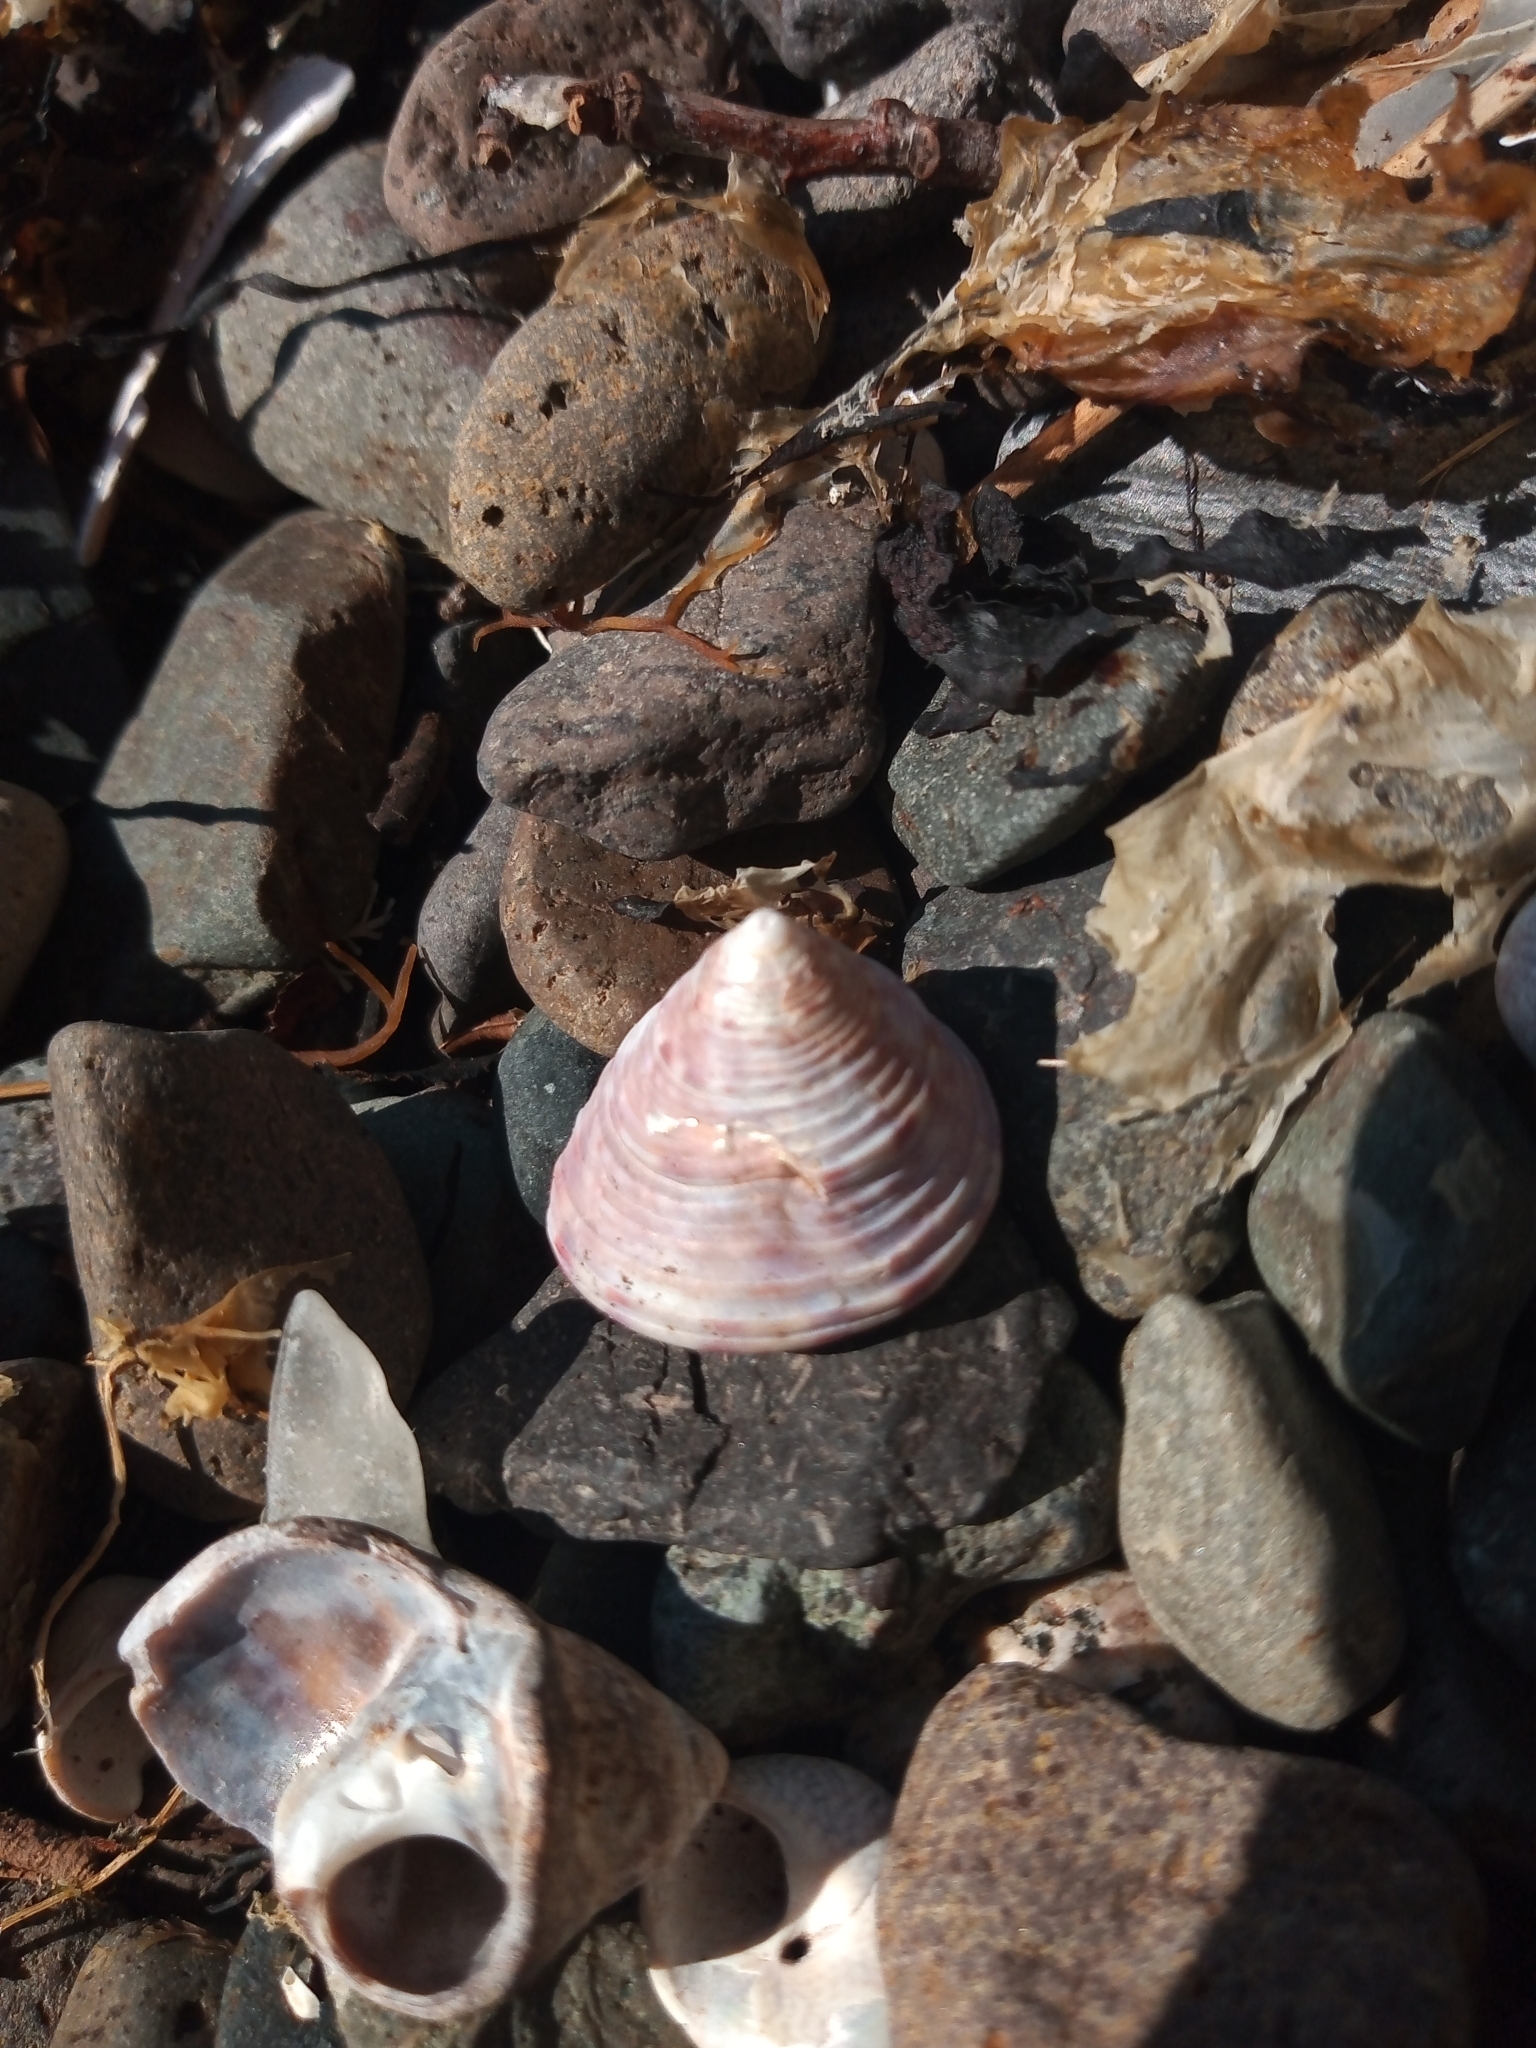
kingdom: Animalia
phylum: Mollusca
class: Gastropoda
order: Trochida
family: Calliostomatidae
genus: Calliostoma
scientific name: Calliostoma zizyphinum
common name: Painted top shell
